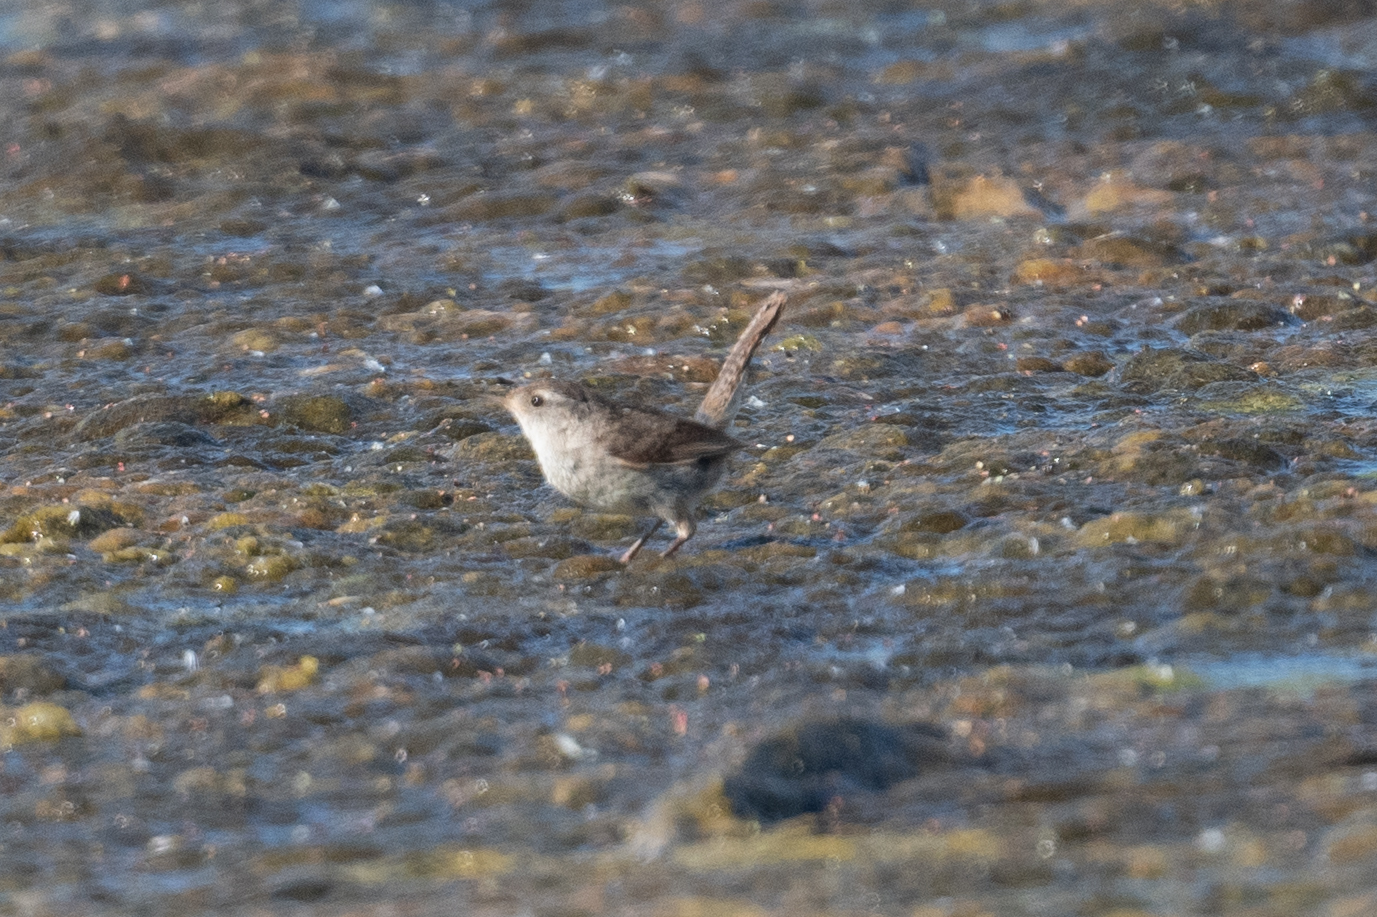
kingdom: Animalia
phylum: Chordata
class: Aves
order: Passeriformes
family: Troglodytidae
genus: Cistothorus
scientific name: Cistothorus palustris
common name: Marsh wren
